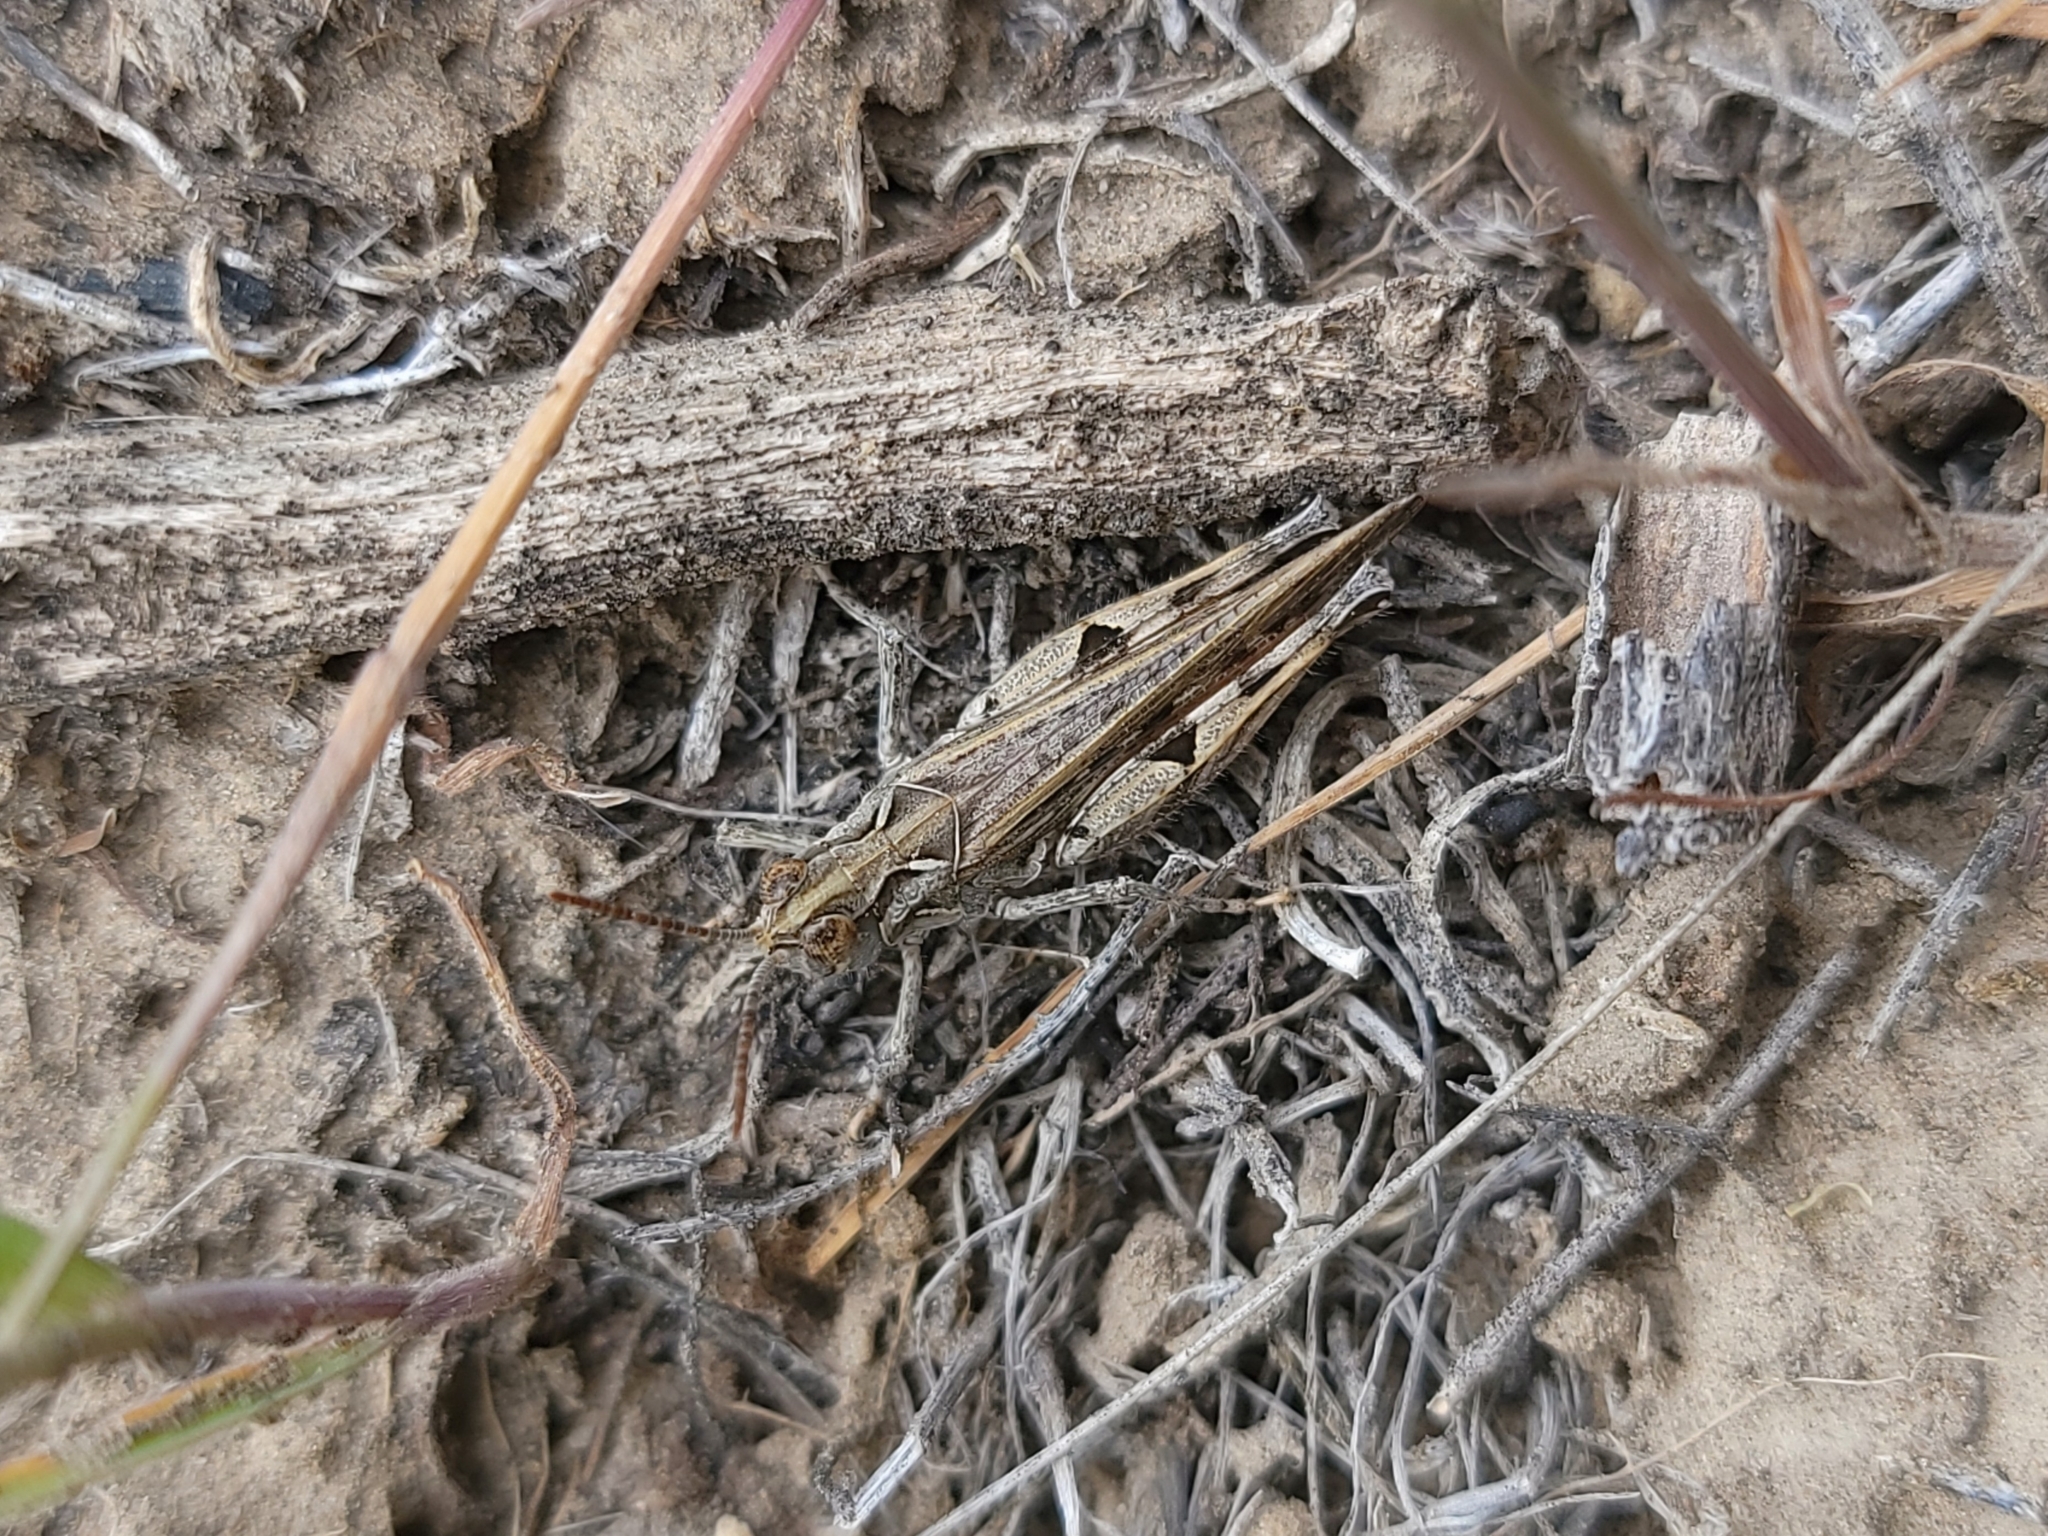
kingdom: Animalia
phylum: Arthropoda
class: Insecta
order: Orthoptera
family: Acrididae
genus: Psoloessa
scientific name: Psoloessa delicatula
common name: Brown-spotted range grasshopper
